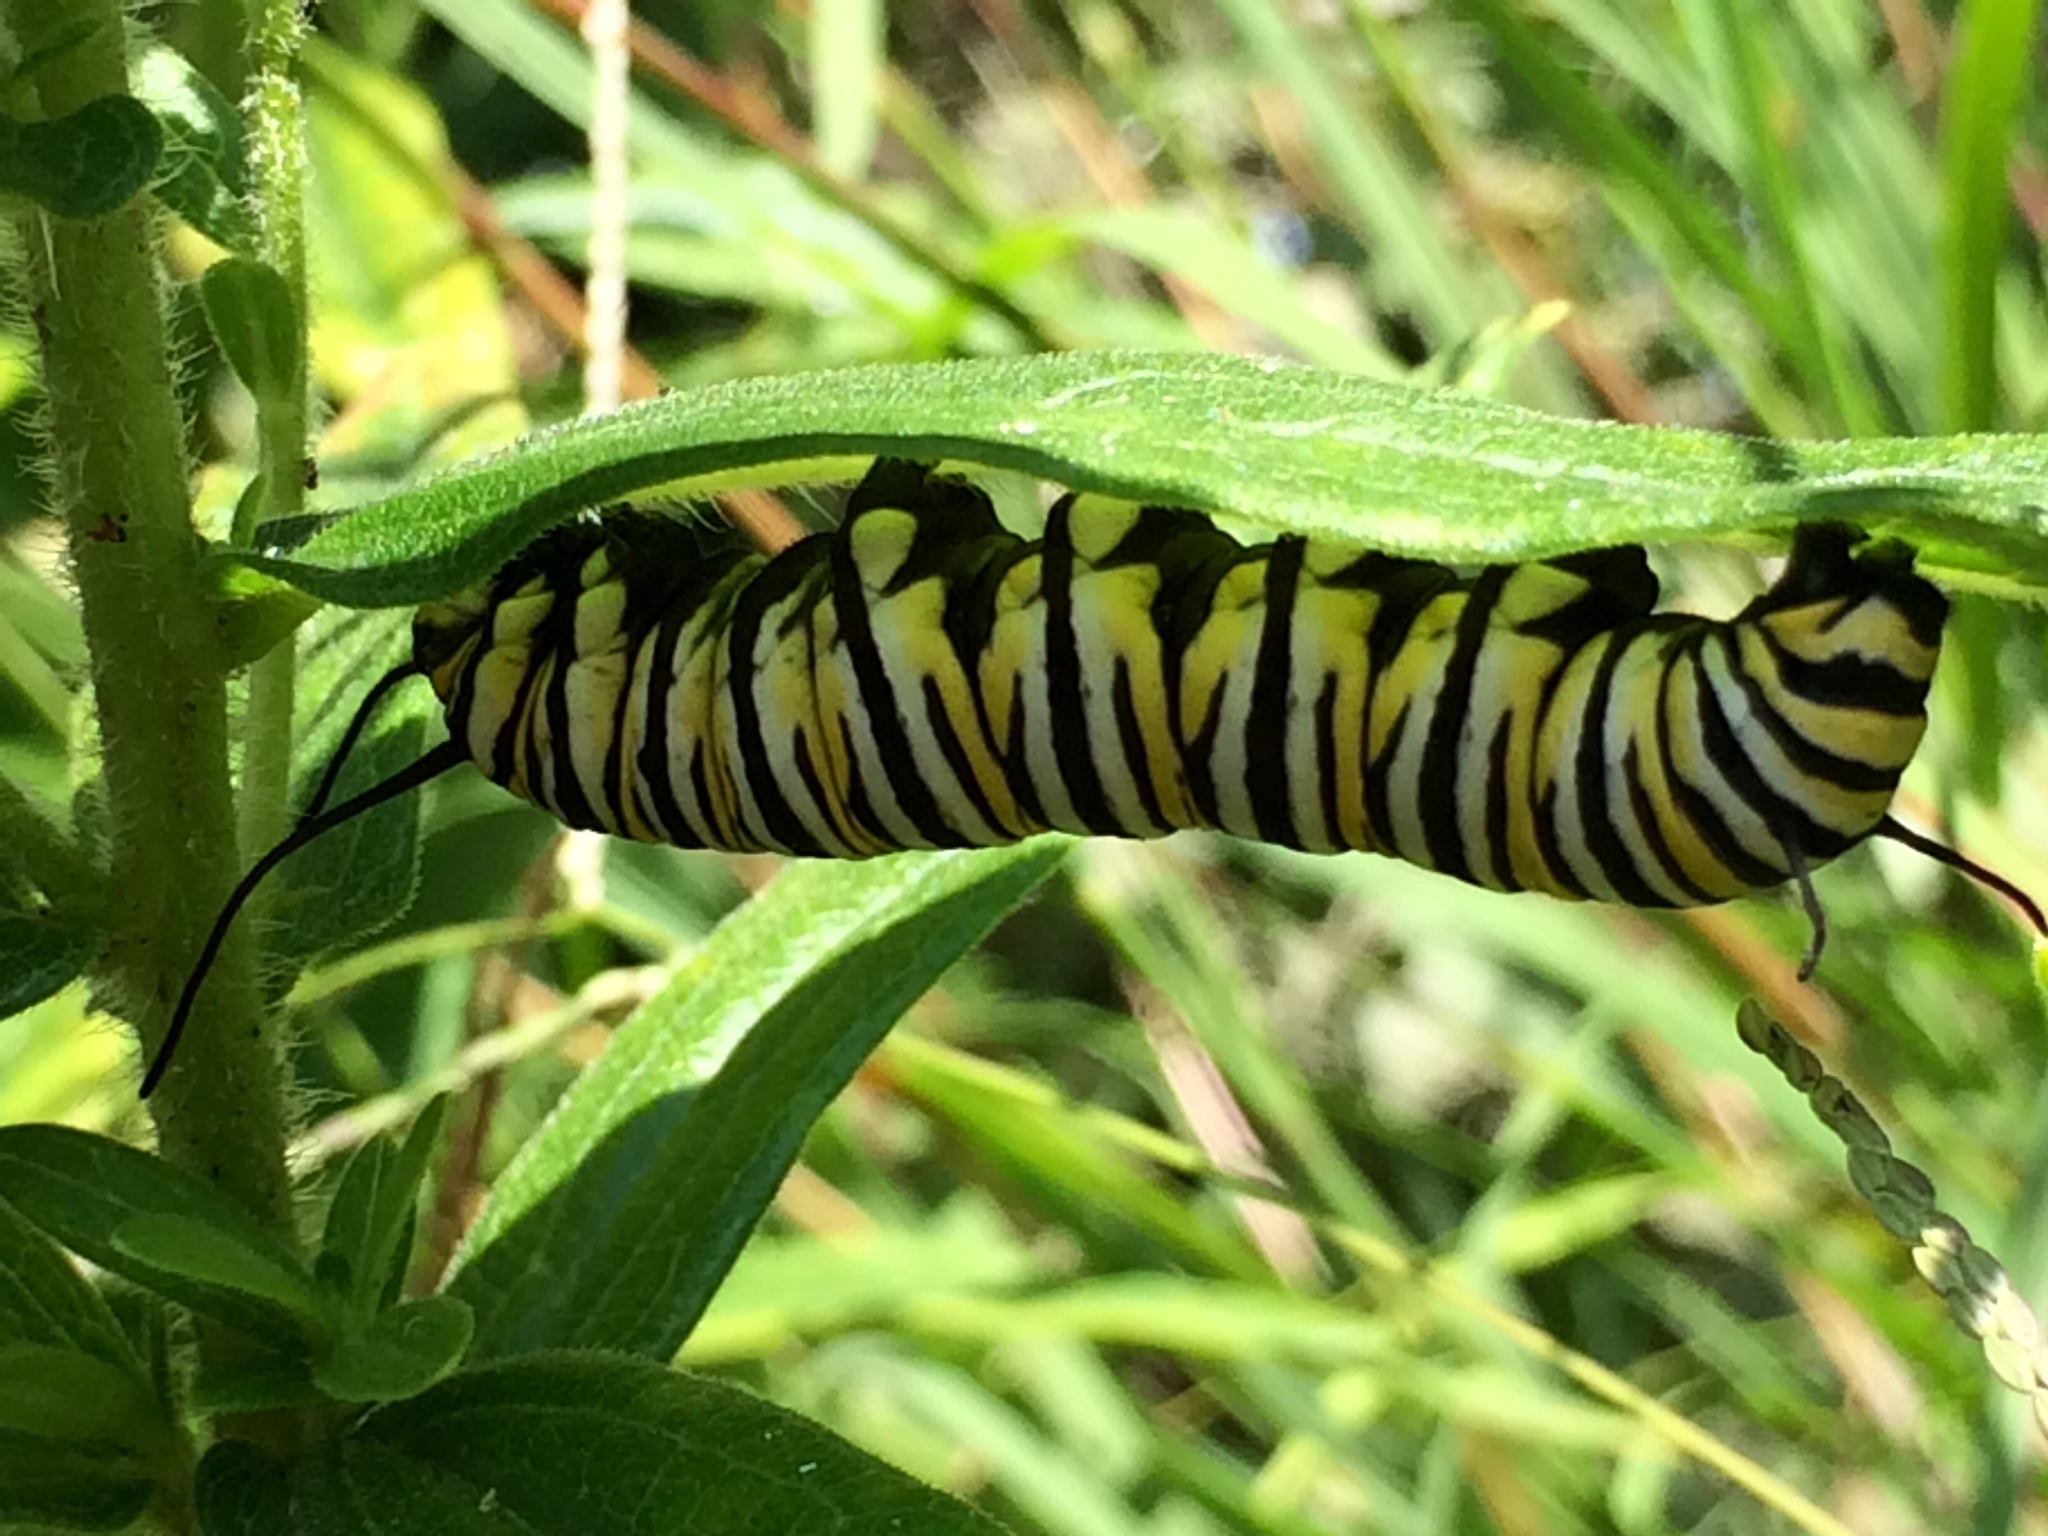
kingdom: Animalia
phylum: Arthropoda
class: Insecta
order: Lepidoptera
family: Nymphalidae
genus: Danaus
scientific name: Danaus plexippus
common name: Monarch
